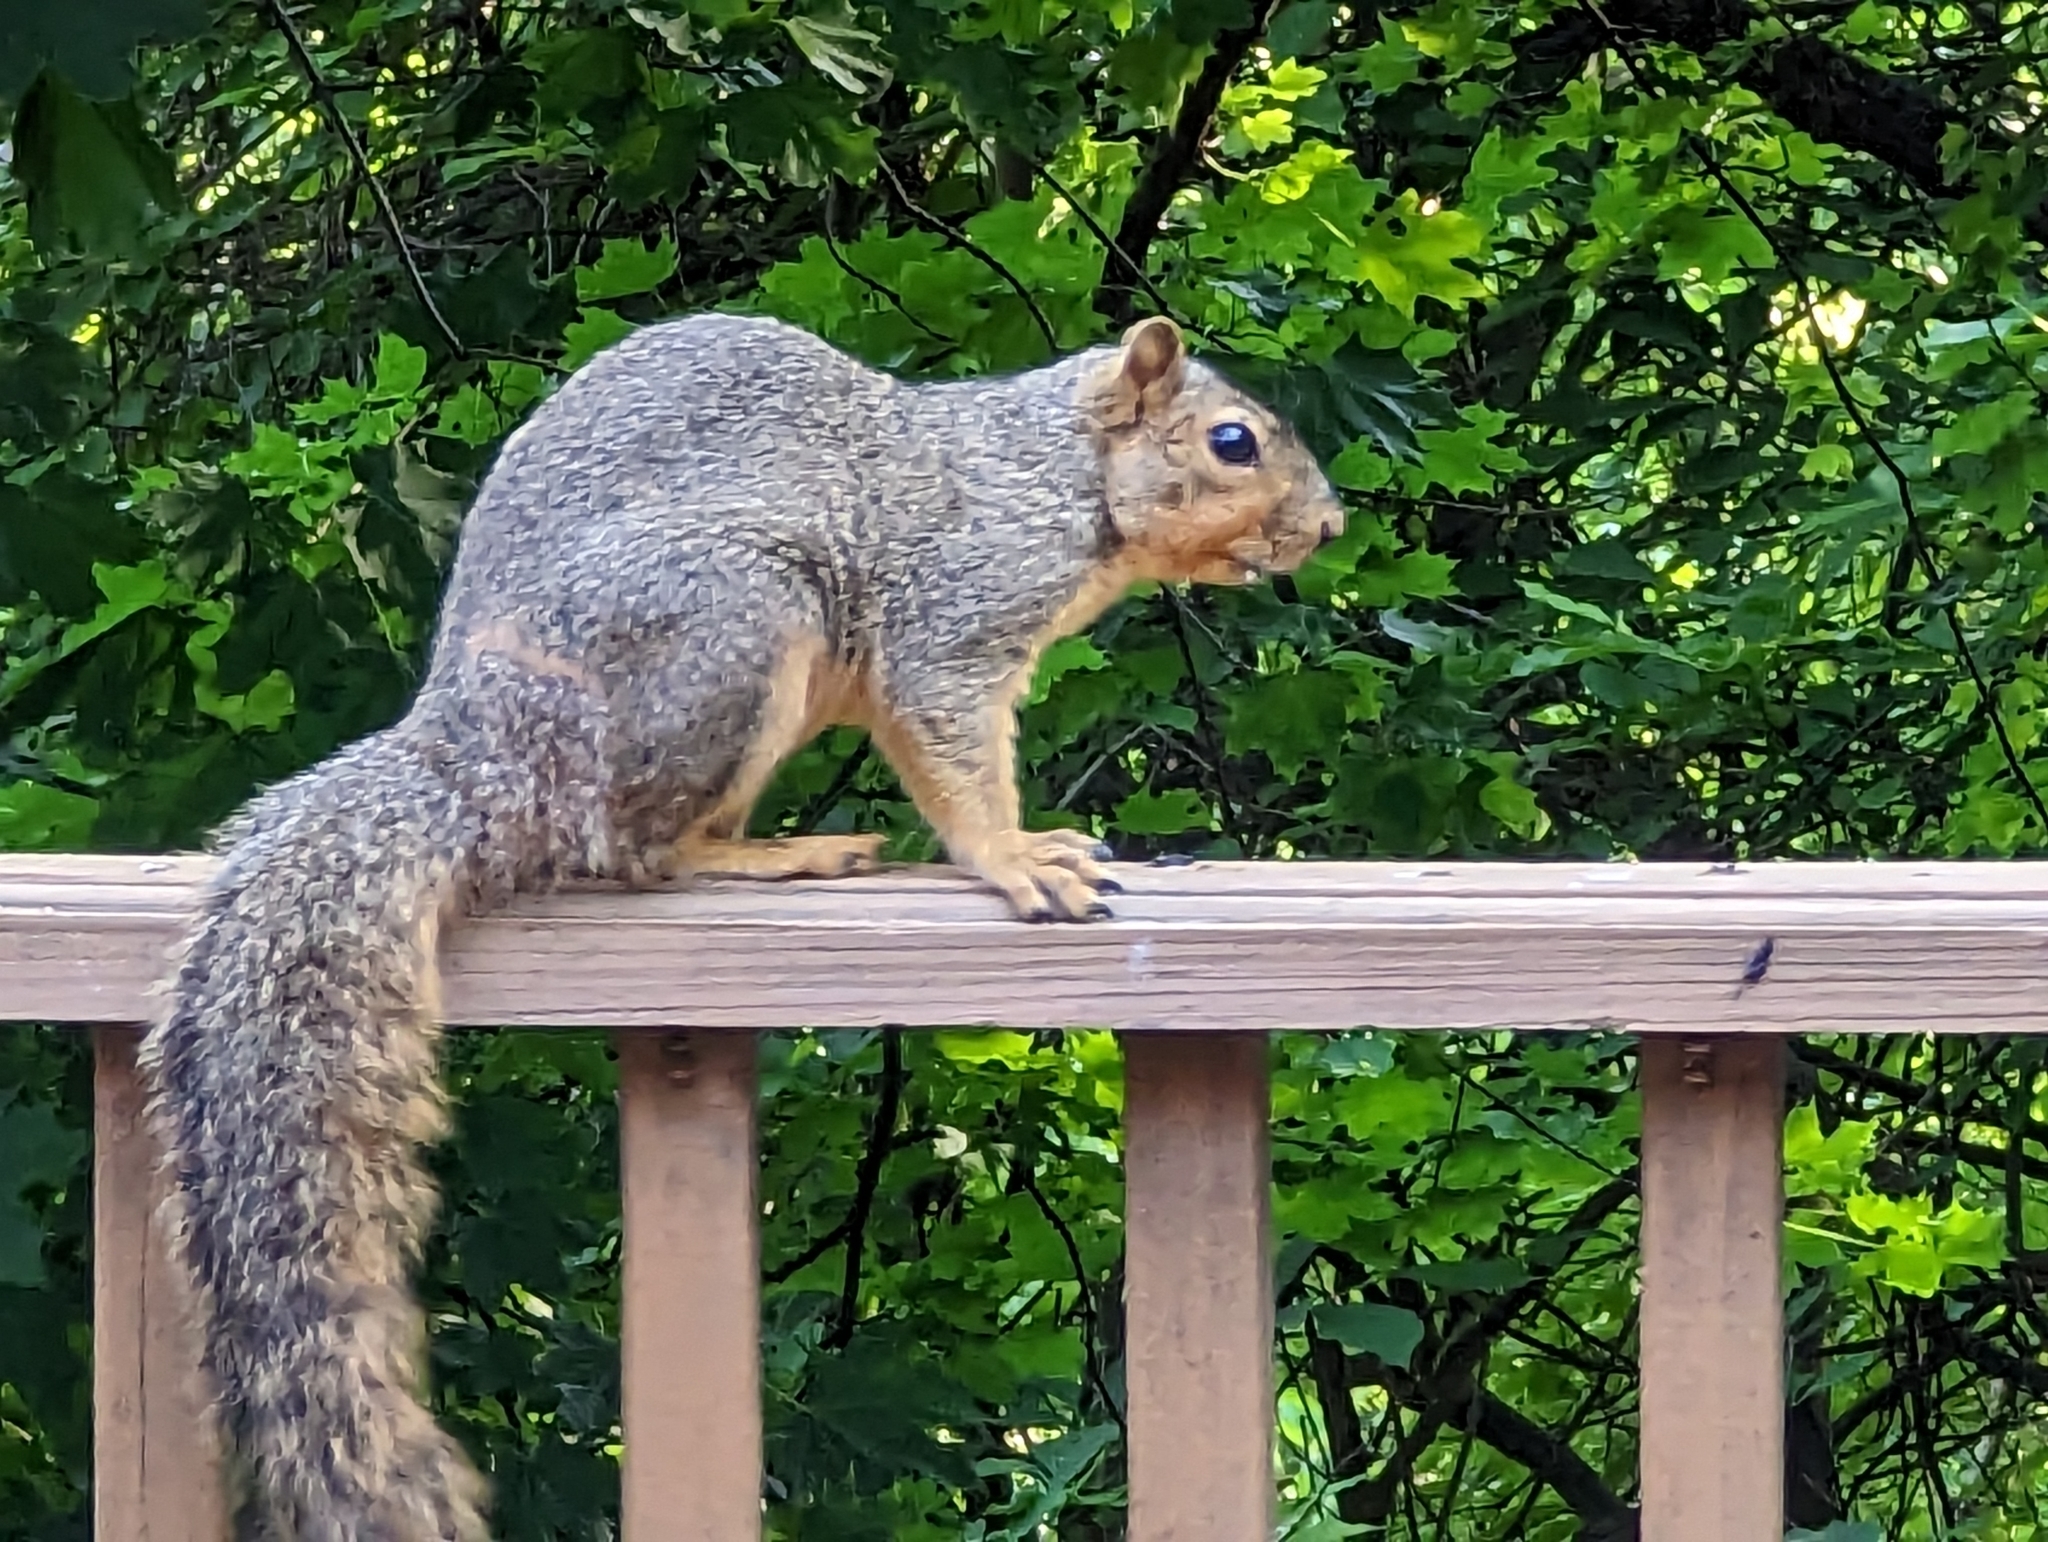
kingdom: Animalia
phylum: Chordata
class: Mammalia
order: Rodentia
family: Sciuridae
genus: Sciurus
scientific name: Sciurus niger
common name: Fox squirrel
